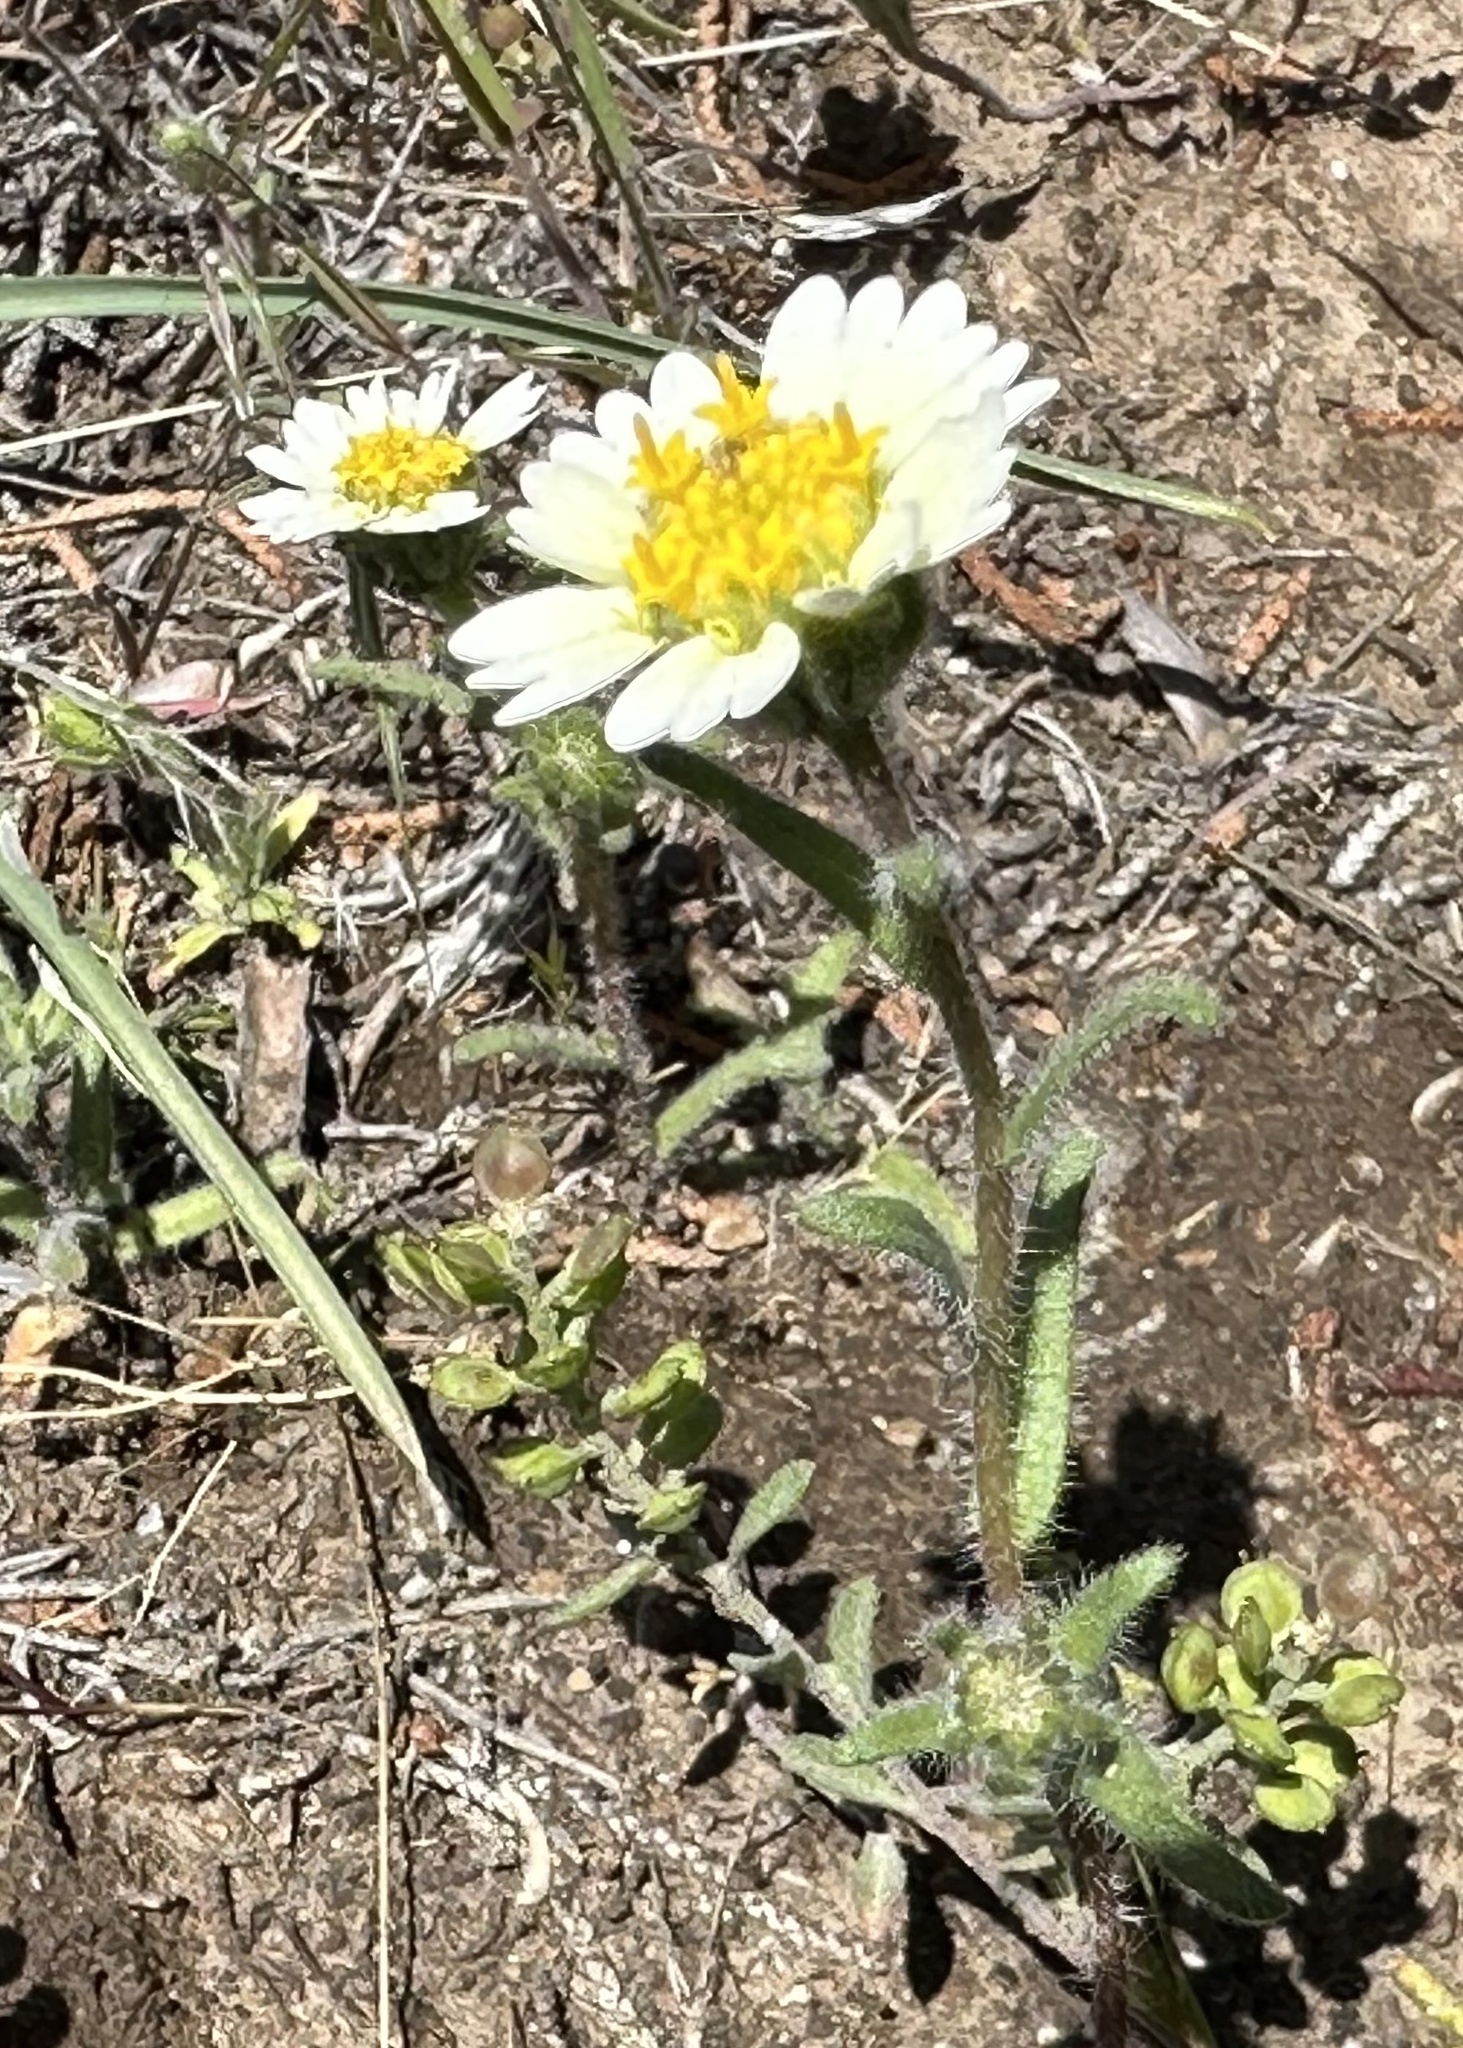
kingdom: Plantae
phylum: Tracheophyta
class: Magnoliopsida
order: Asterales
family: Asteraceae
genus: Layia
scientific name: Layia glandulosa
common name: White layia
